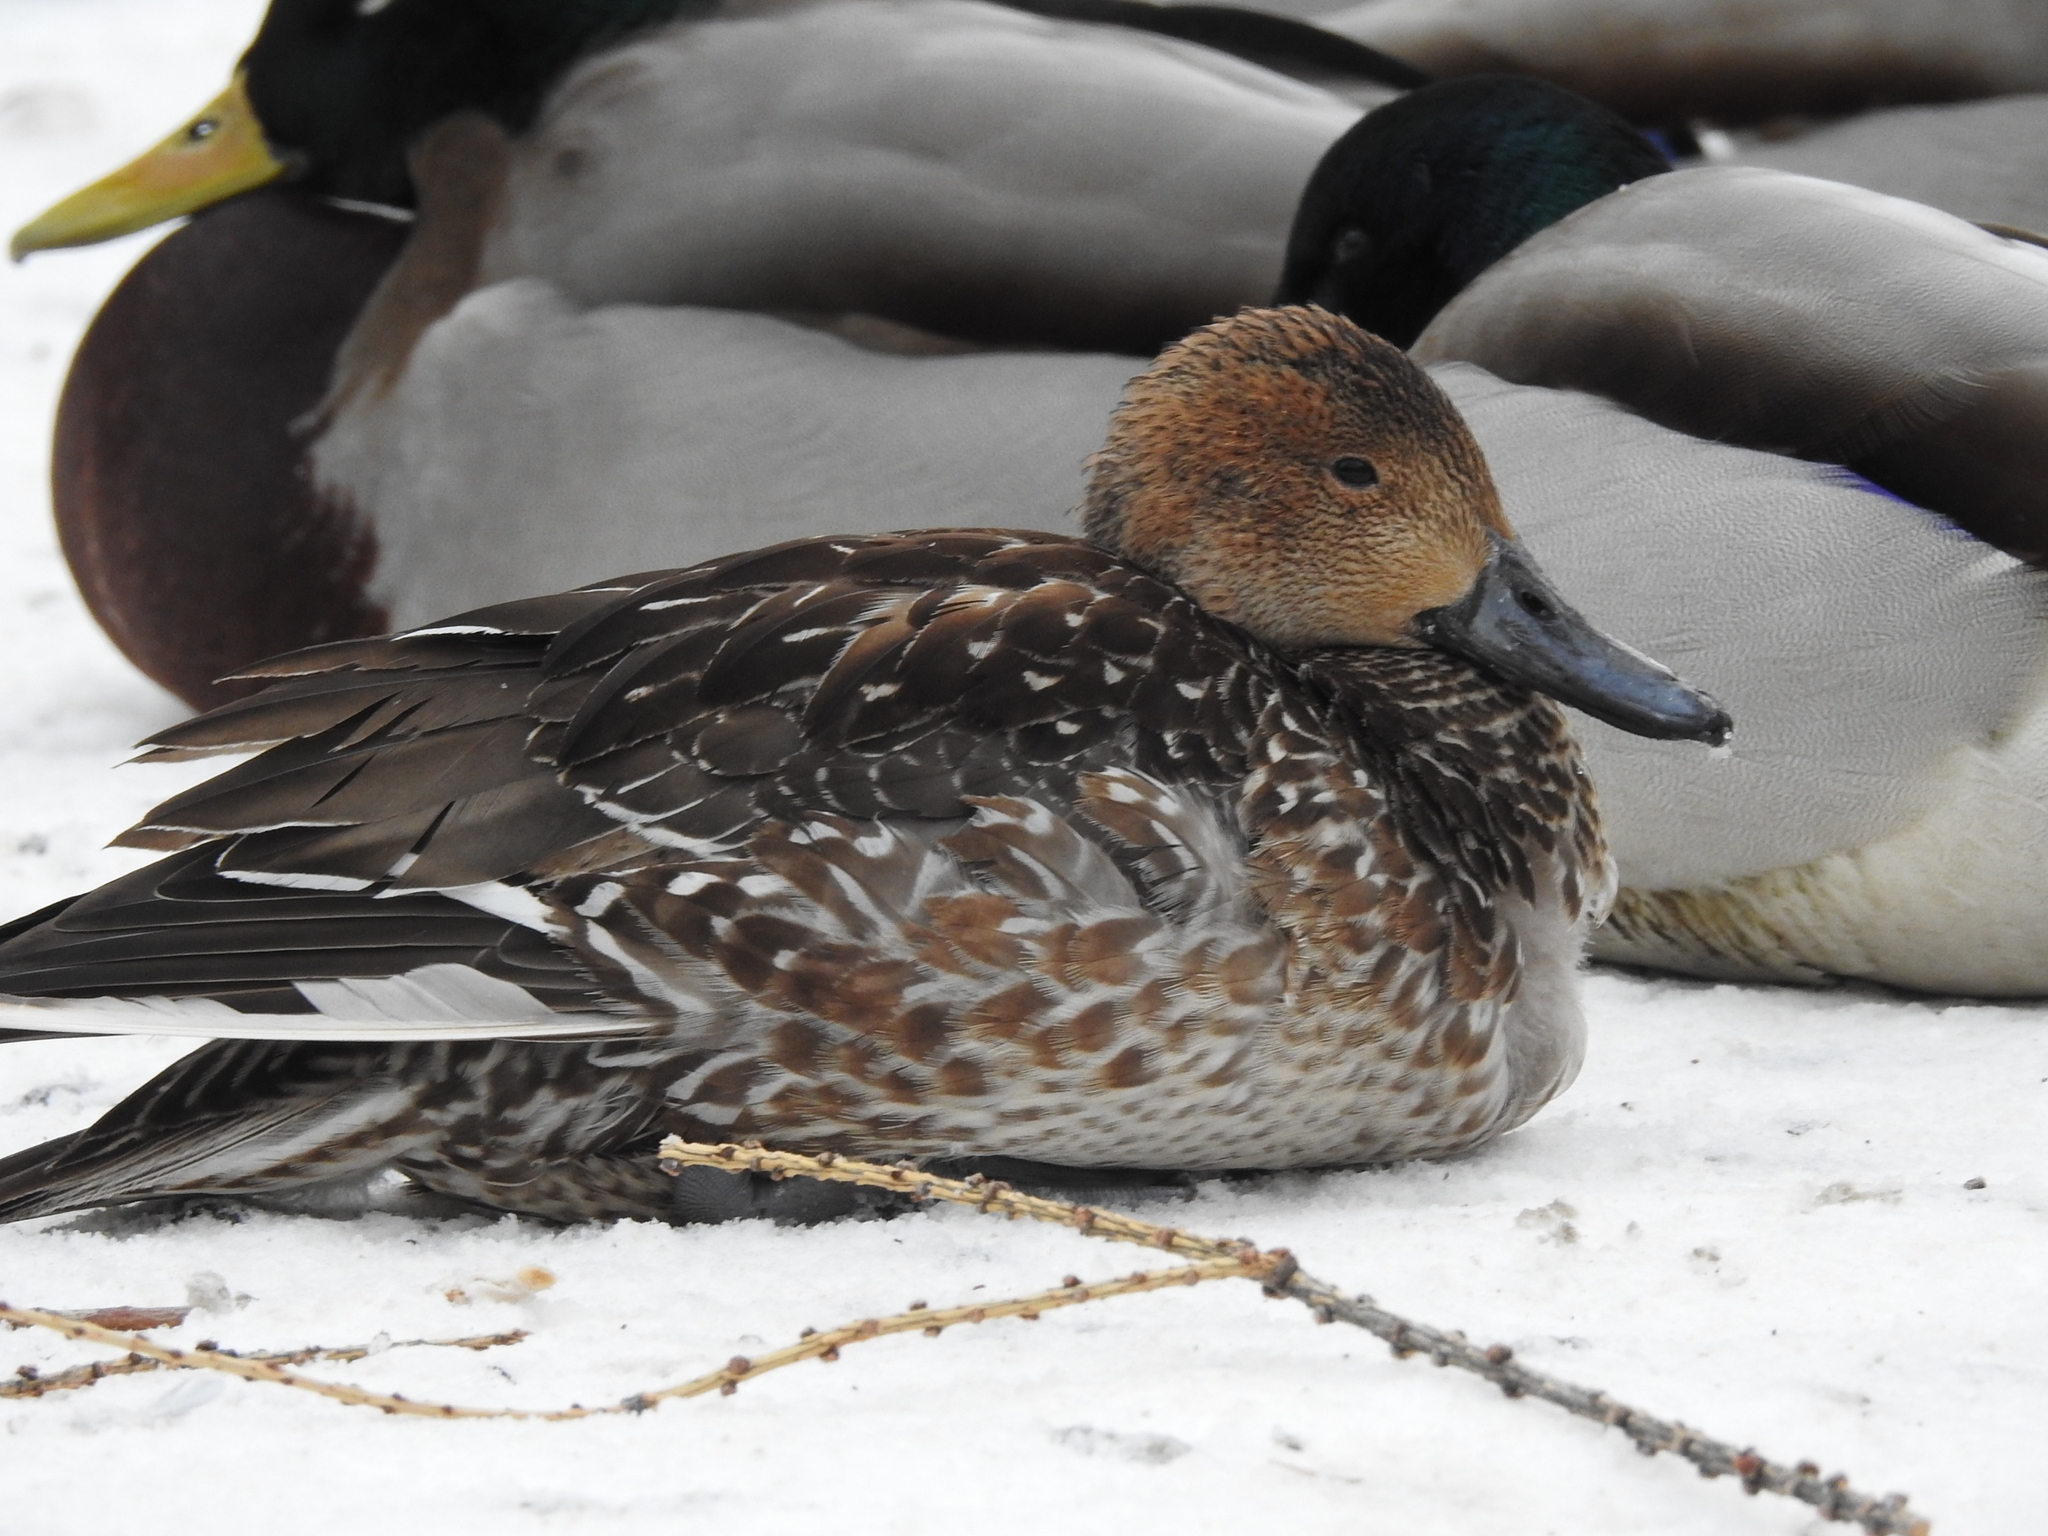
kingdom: Animalia
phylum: Chordata
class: Aves
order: Anseriformes
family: Anatidae
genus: Anas
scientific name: Anas acuta
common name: Northern pintail
